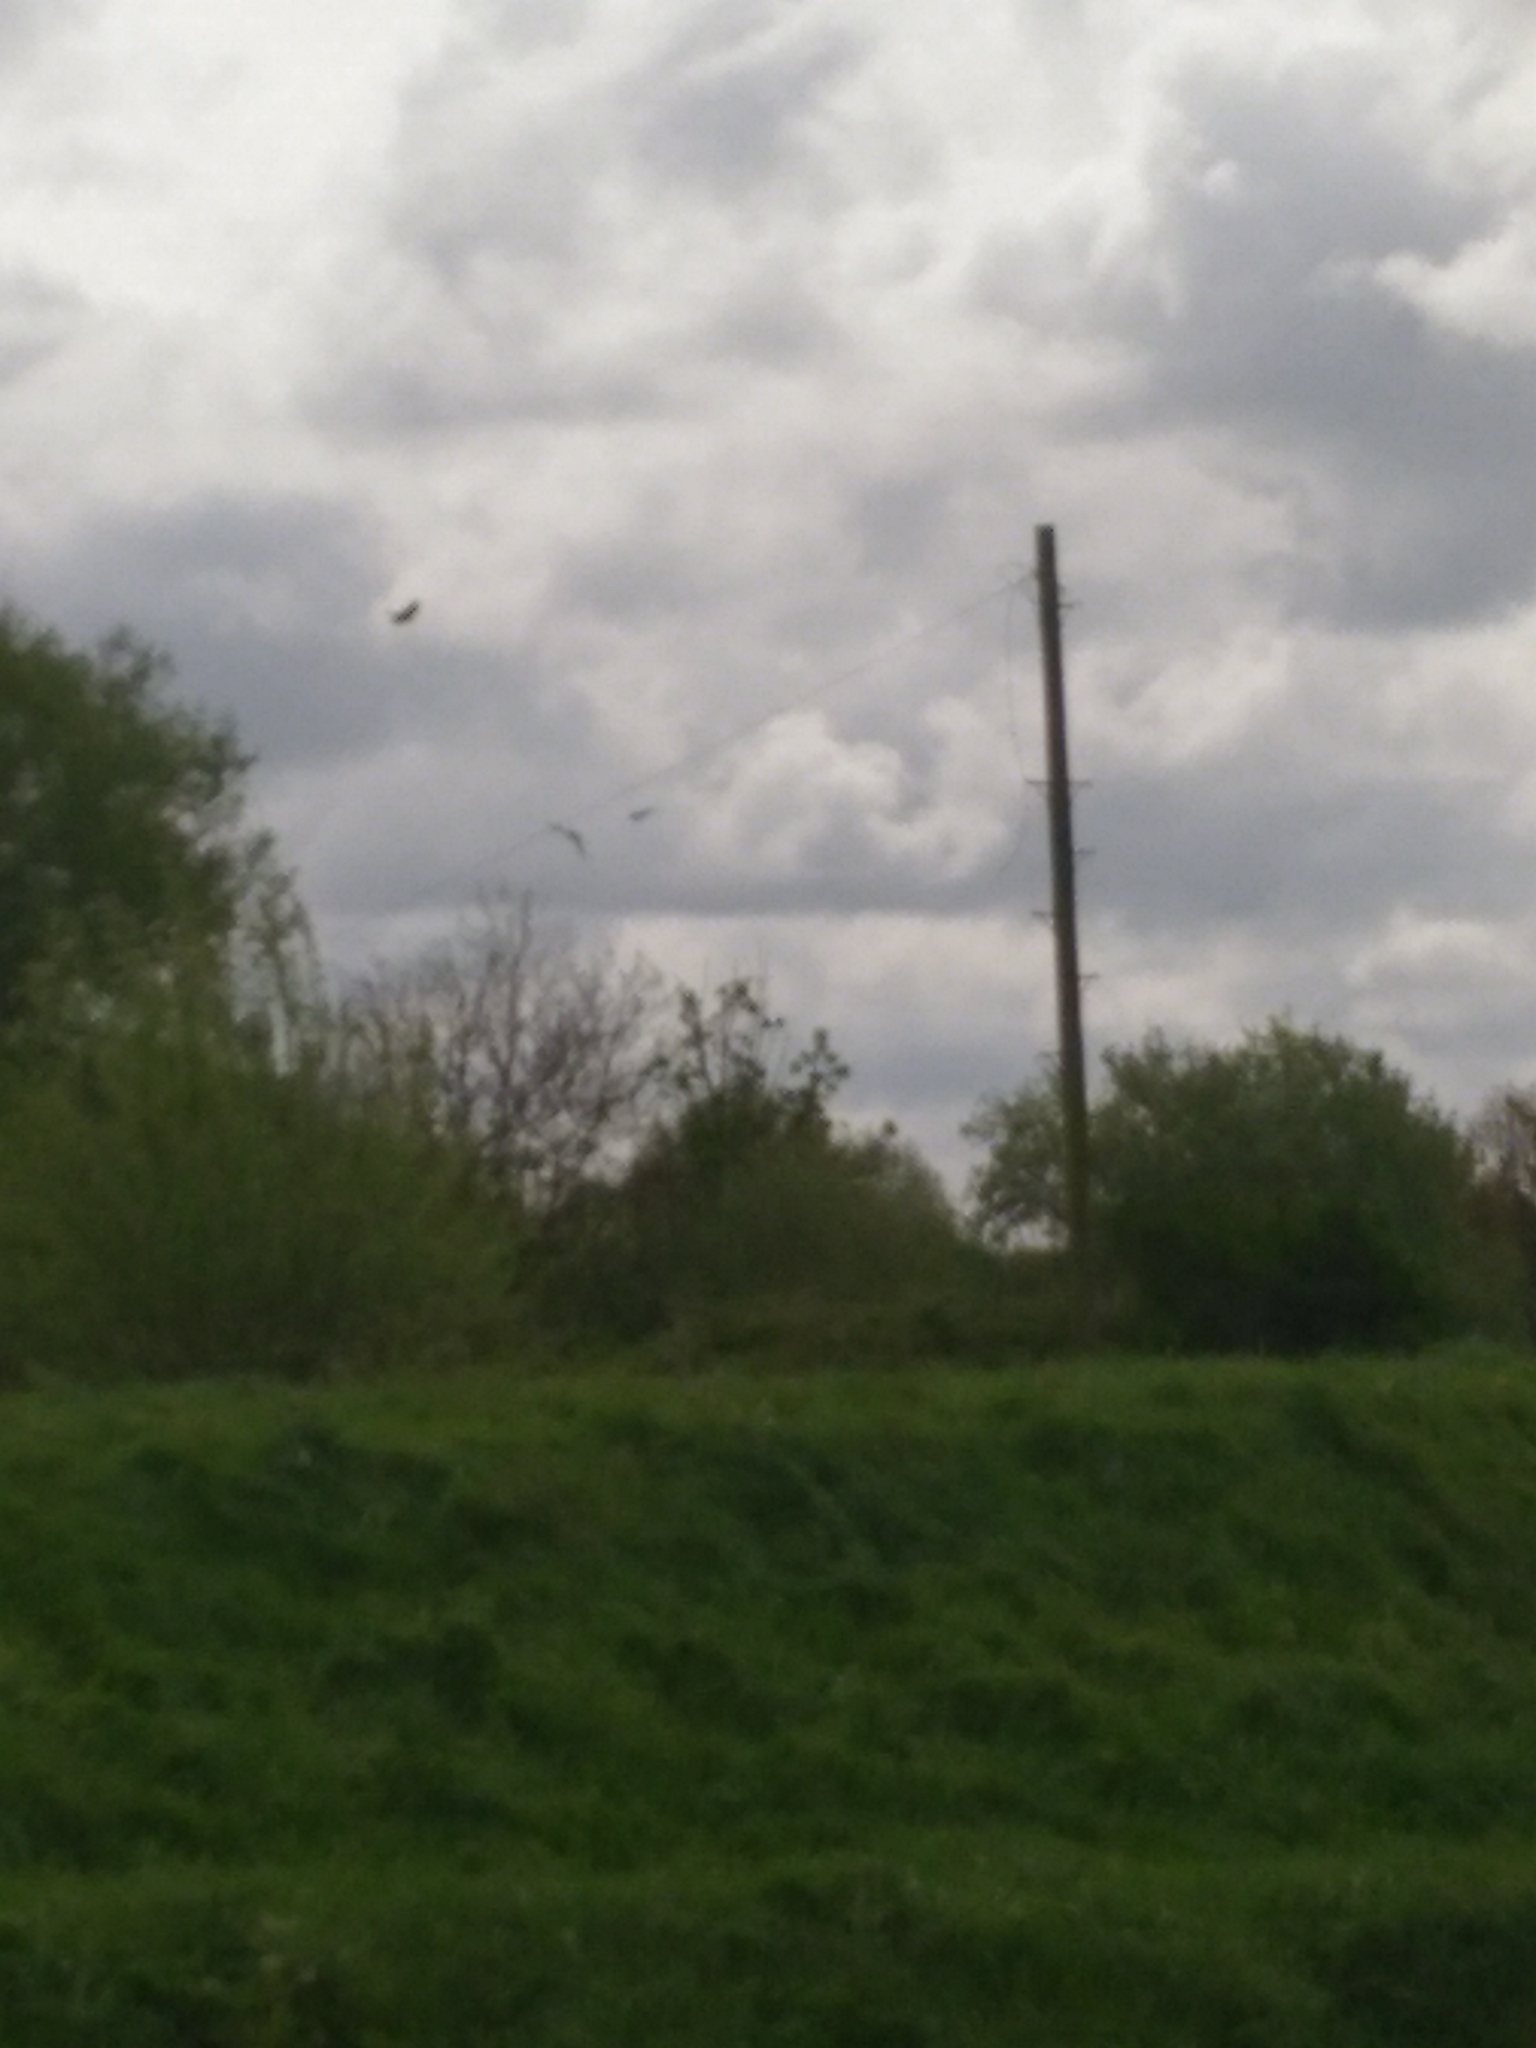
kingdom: Animalia
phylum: Chordata
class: Aves
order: Passeriformes
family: Hirundinidae
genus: Riparia
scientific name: Riparia riparia
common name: Sand martin
